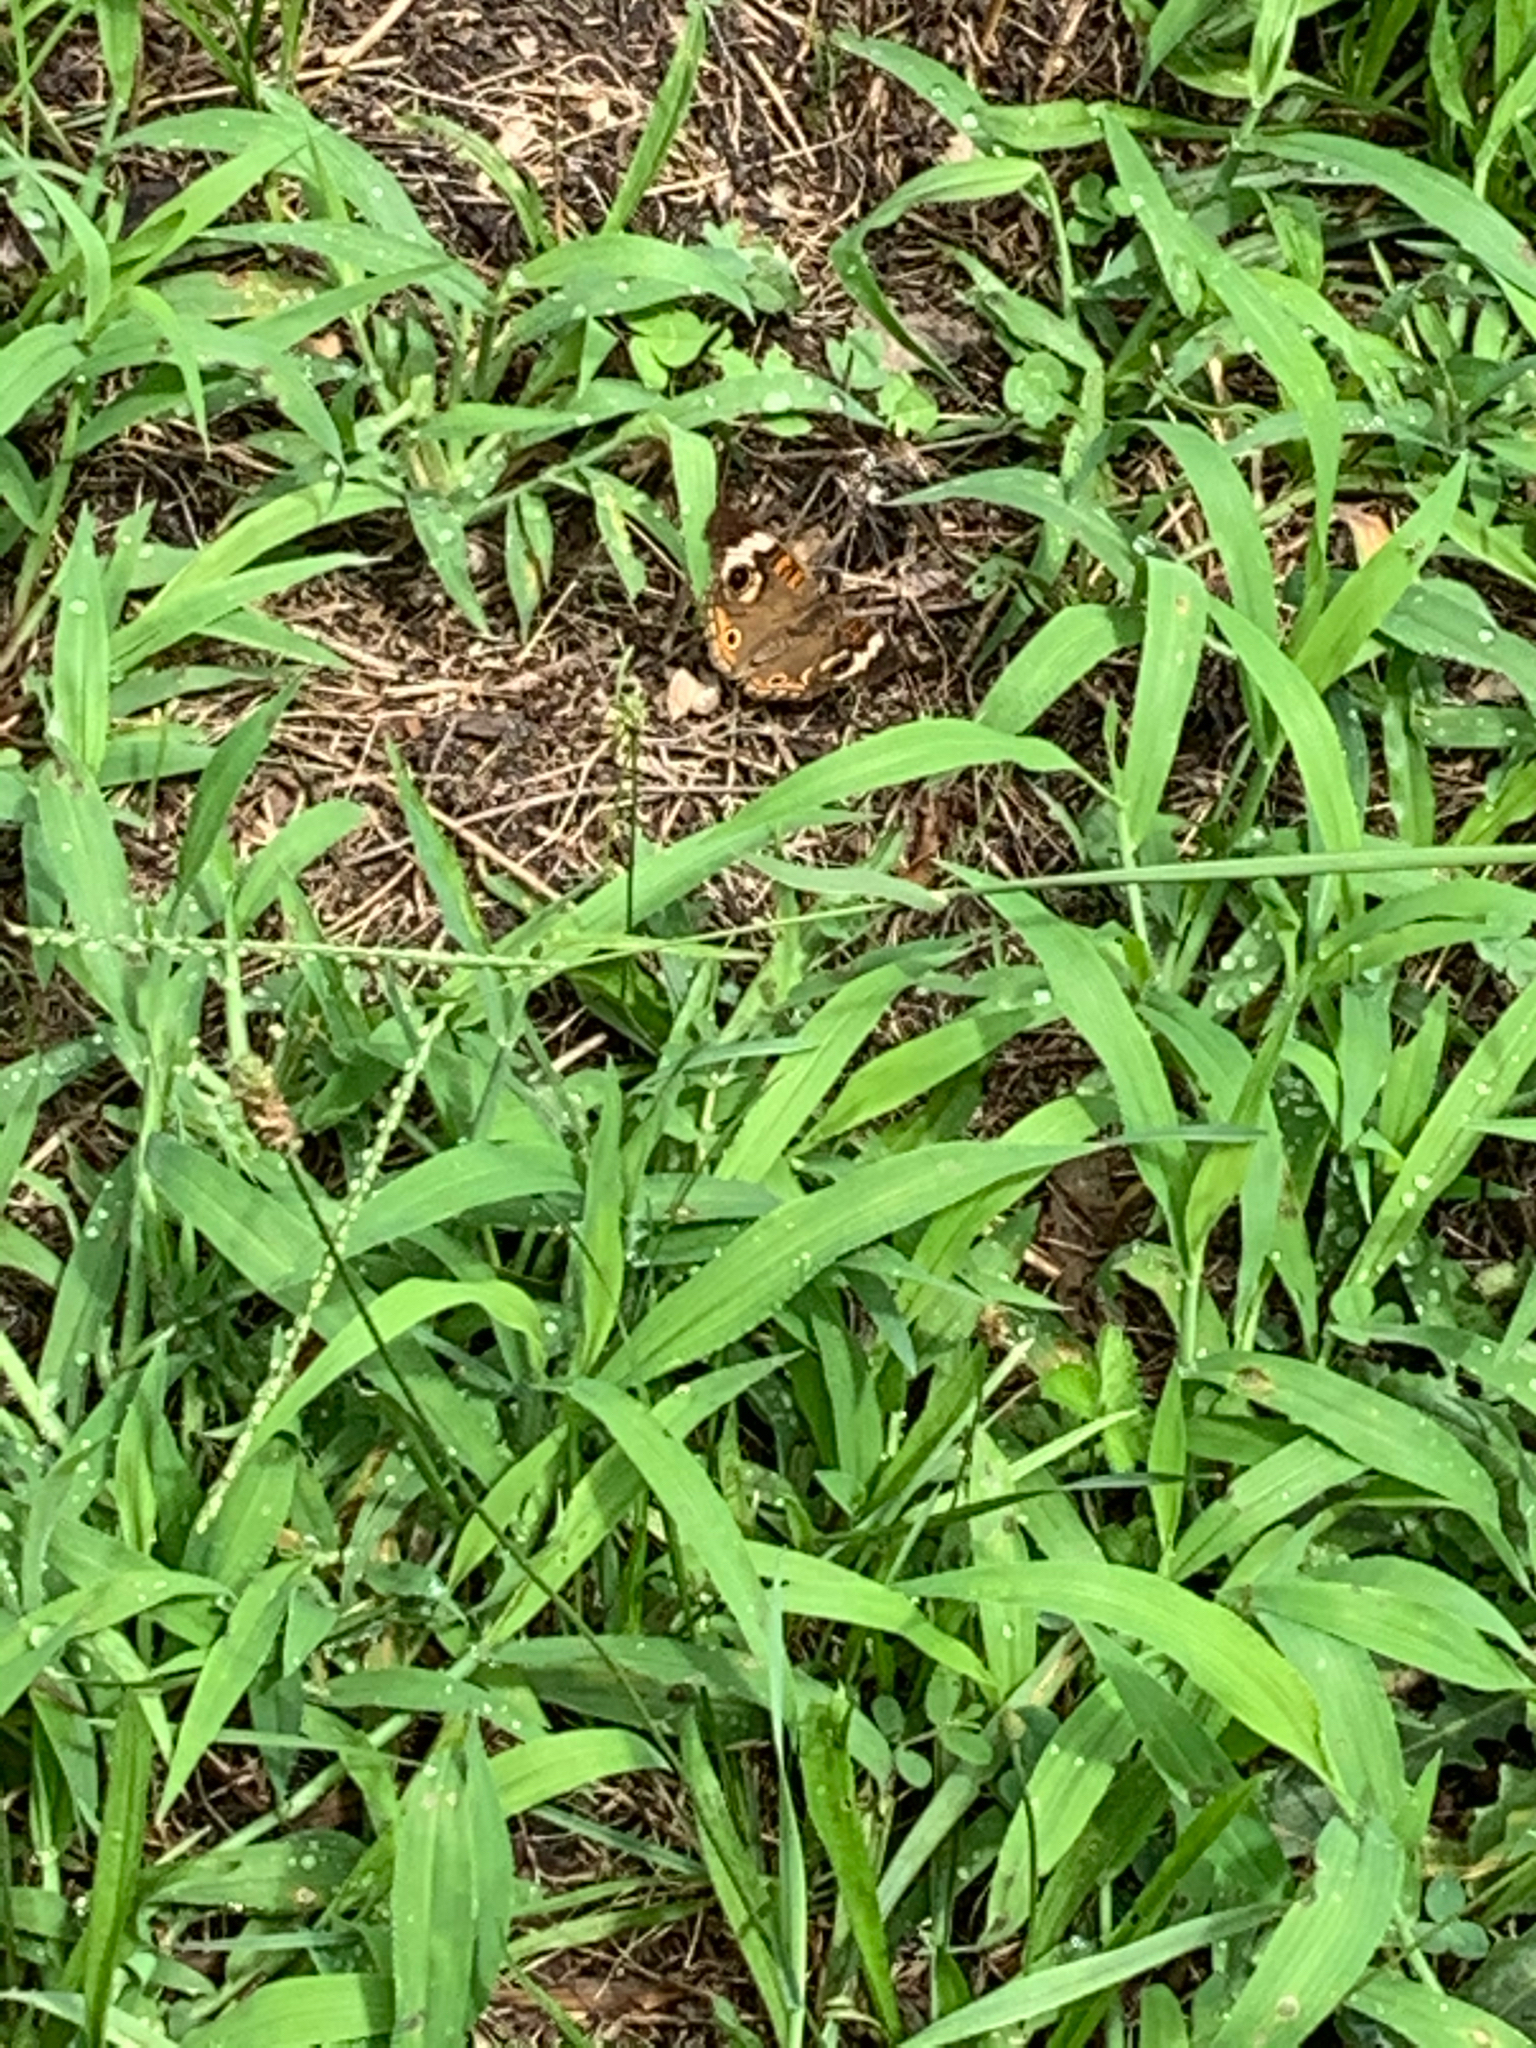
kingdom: Animalia
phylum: Arthropoda
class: Insecta
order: Lepidoptera
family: Nymphalidae
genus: Junonia
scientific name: Junonia coenia
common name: Common buckeye
